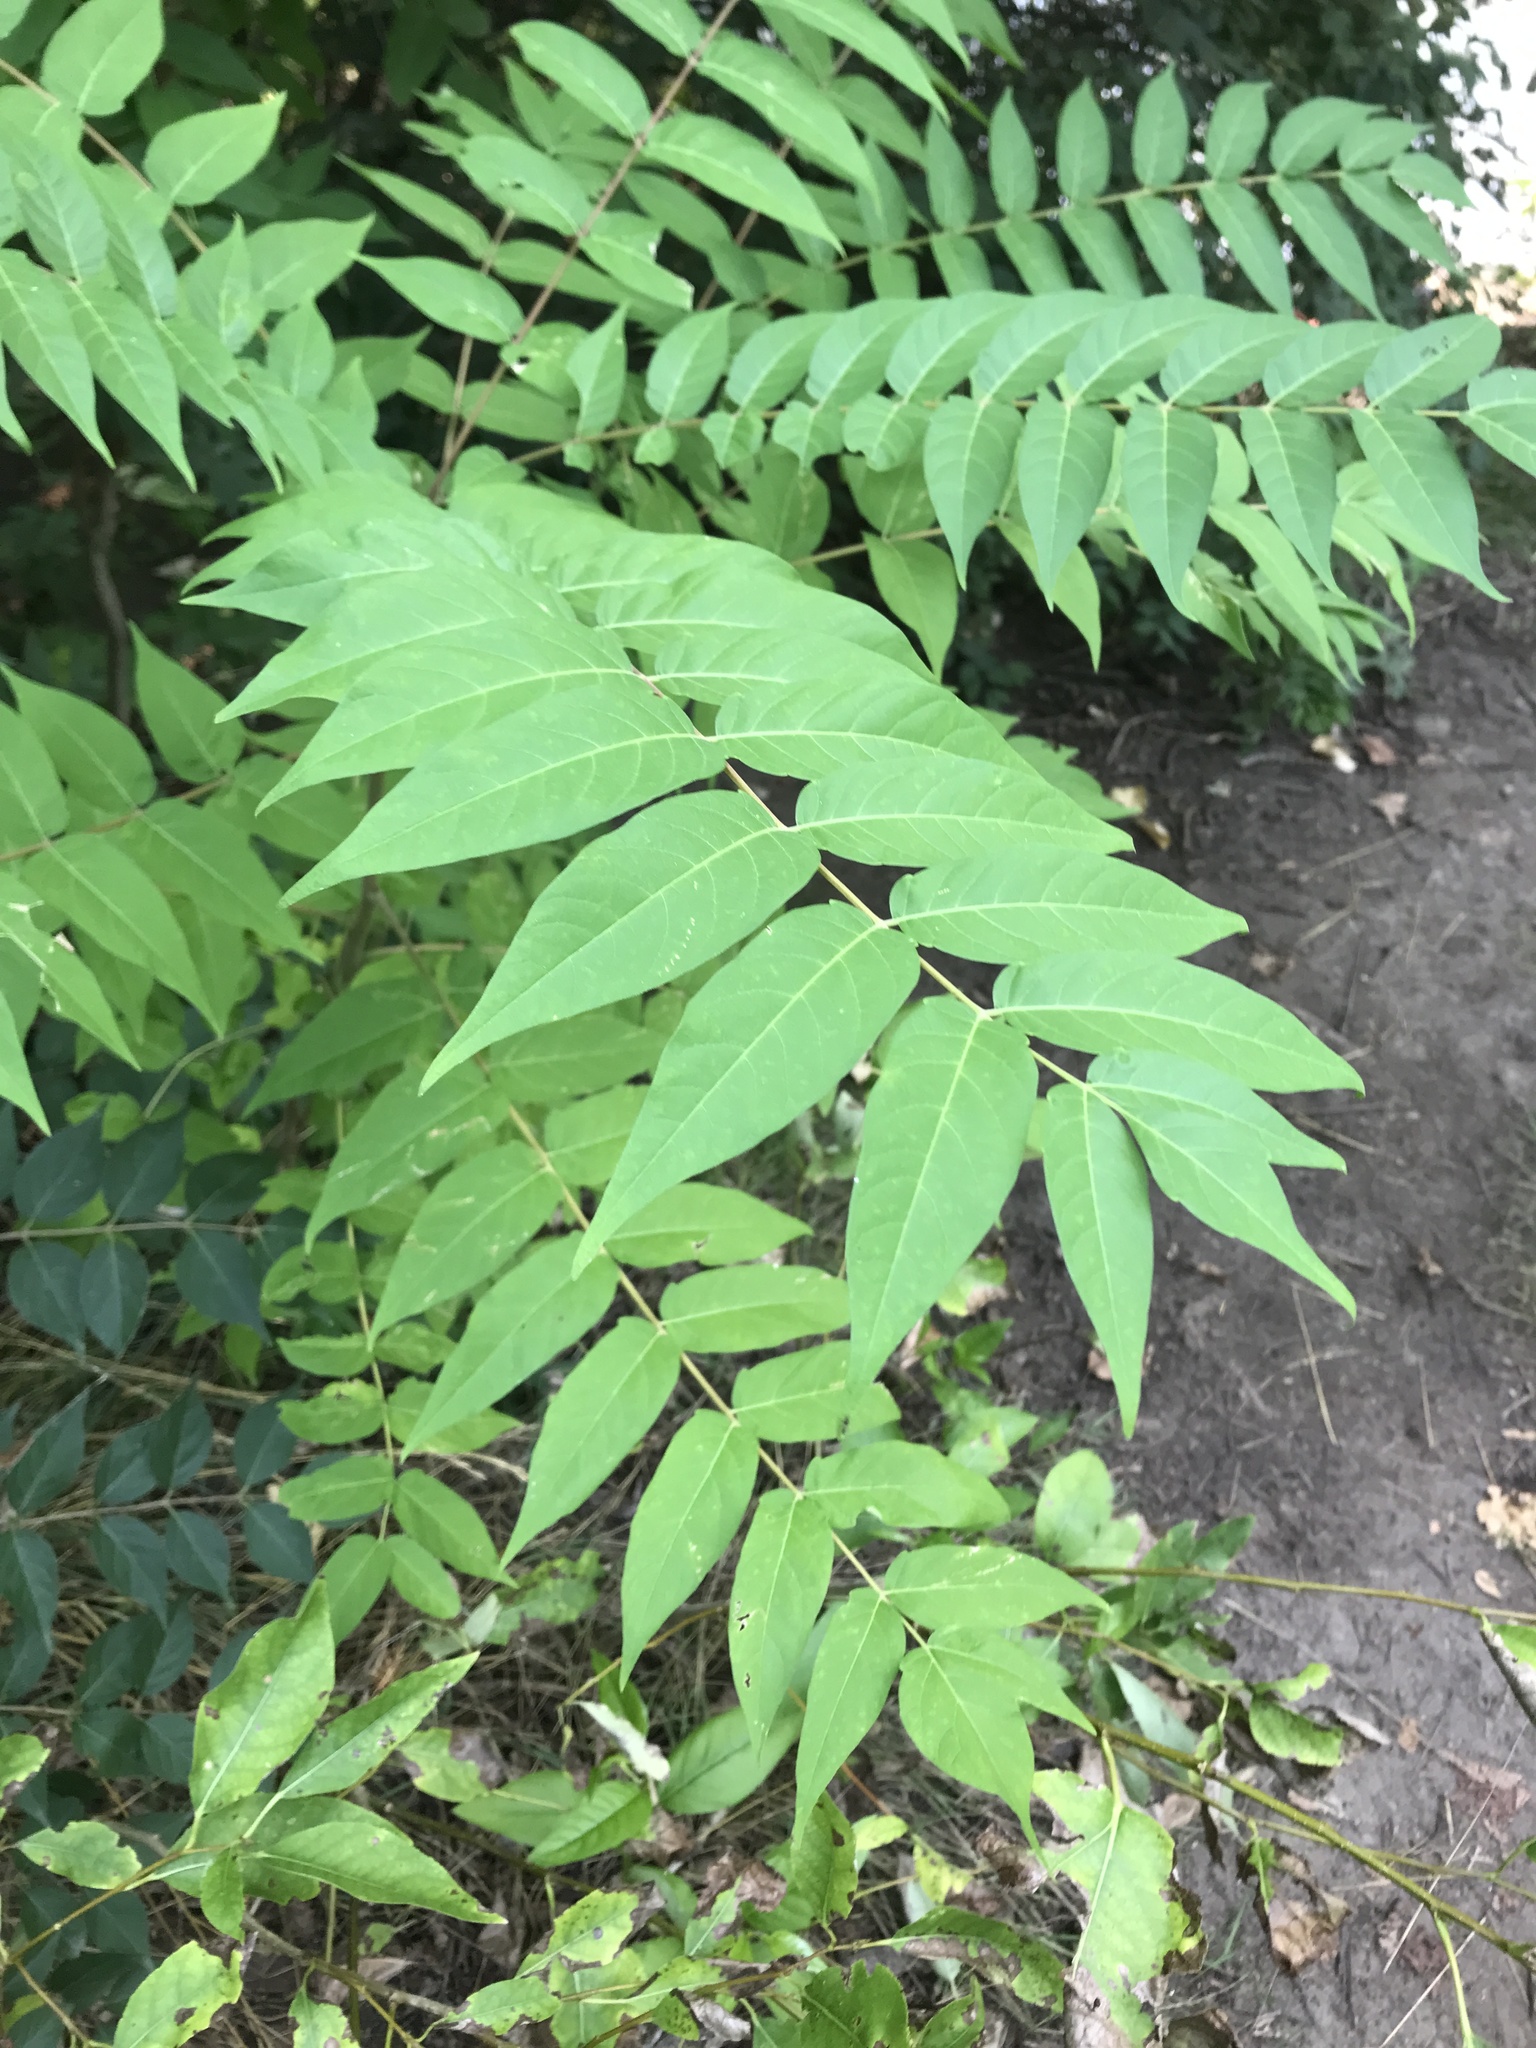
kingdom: Plantae
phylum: Tracheophyta
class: Magnoliopsida
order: Sapindales
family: Simaroubaceae
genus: Ailanthus
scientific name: Ailanthus altissima
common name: Tree-of-heaven
